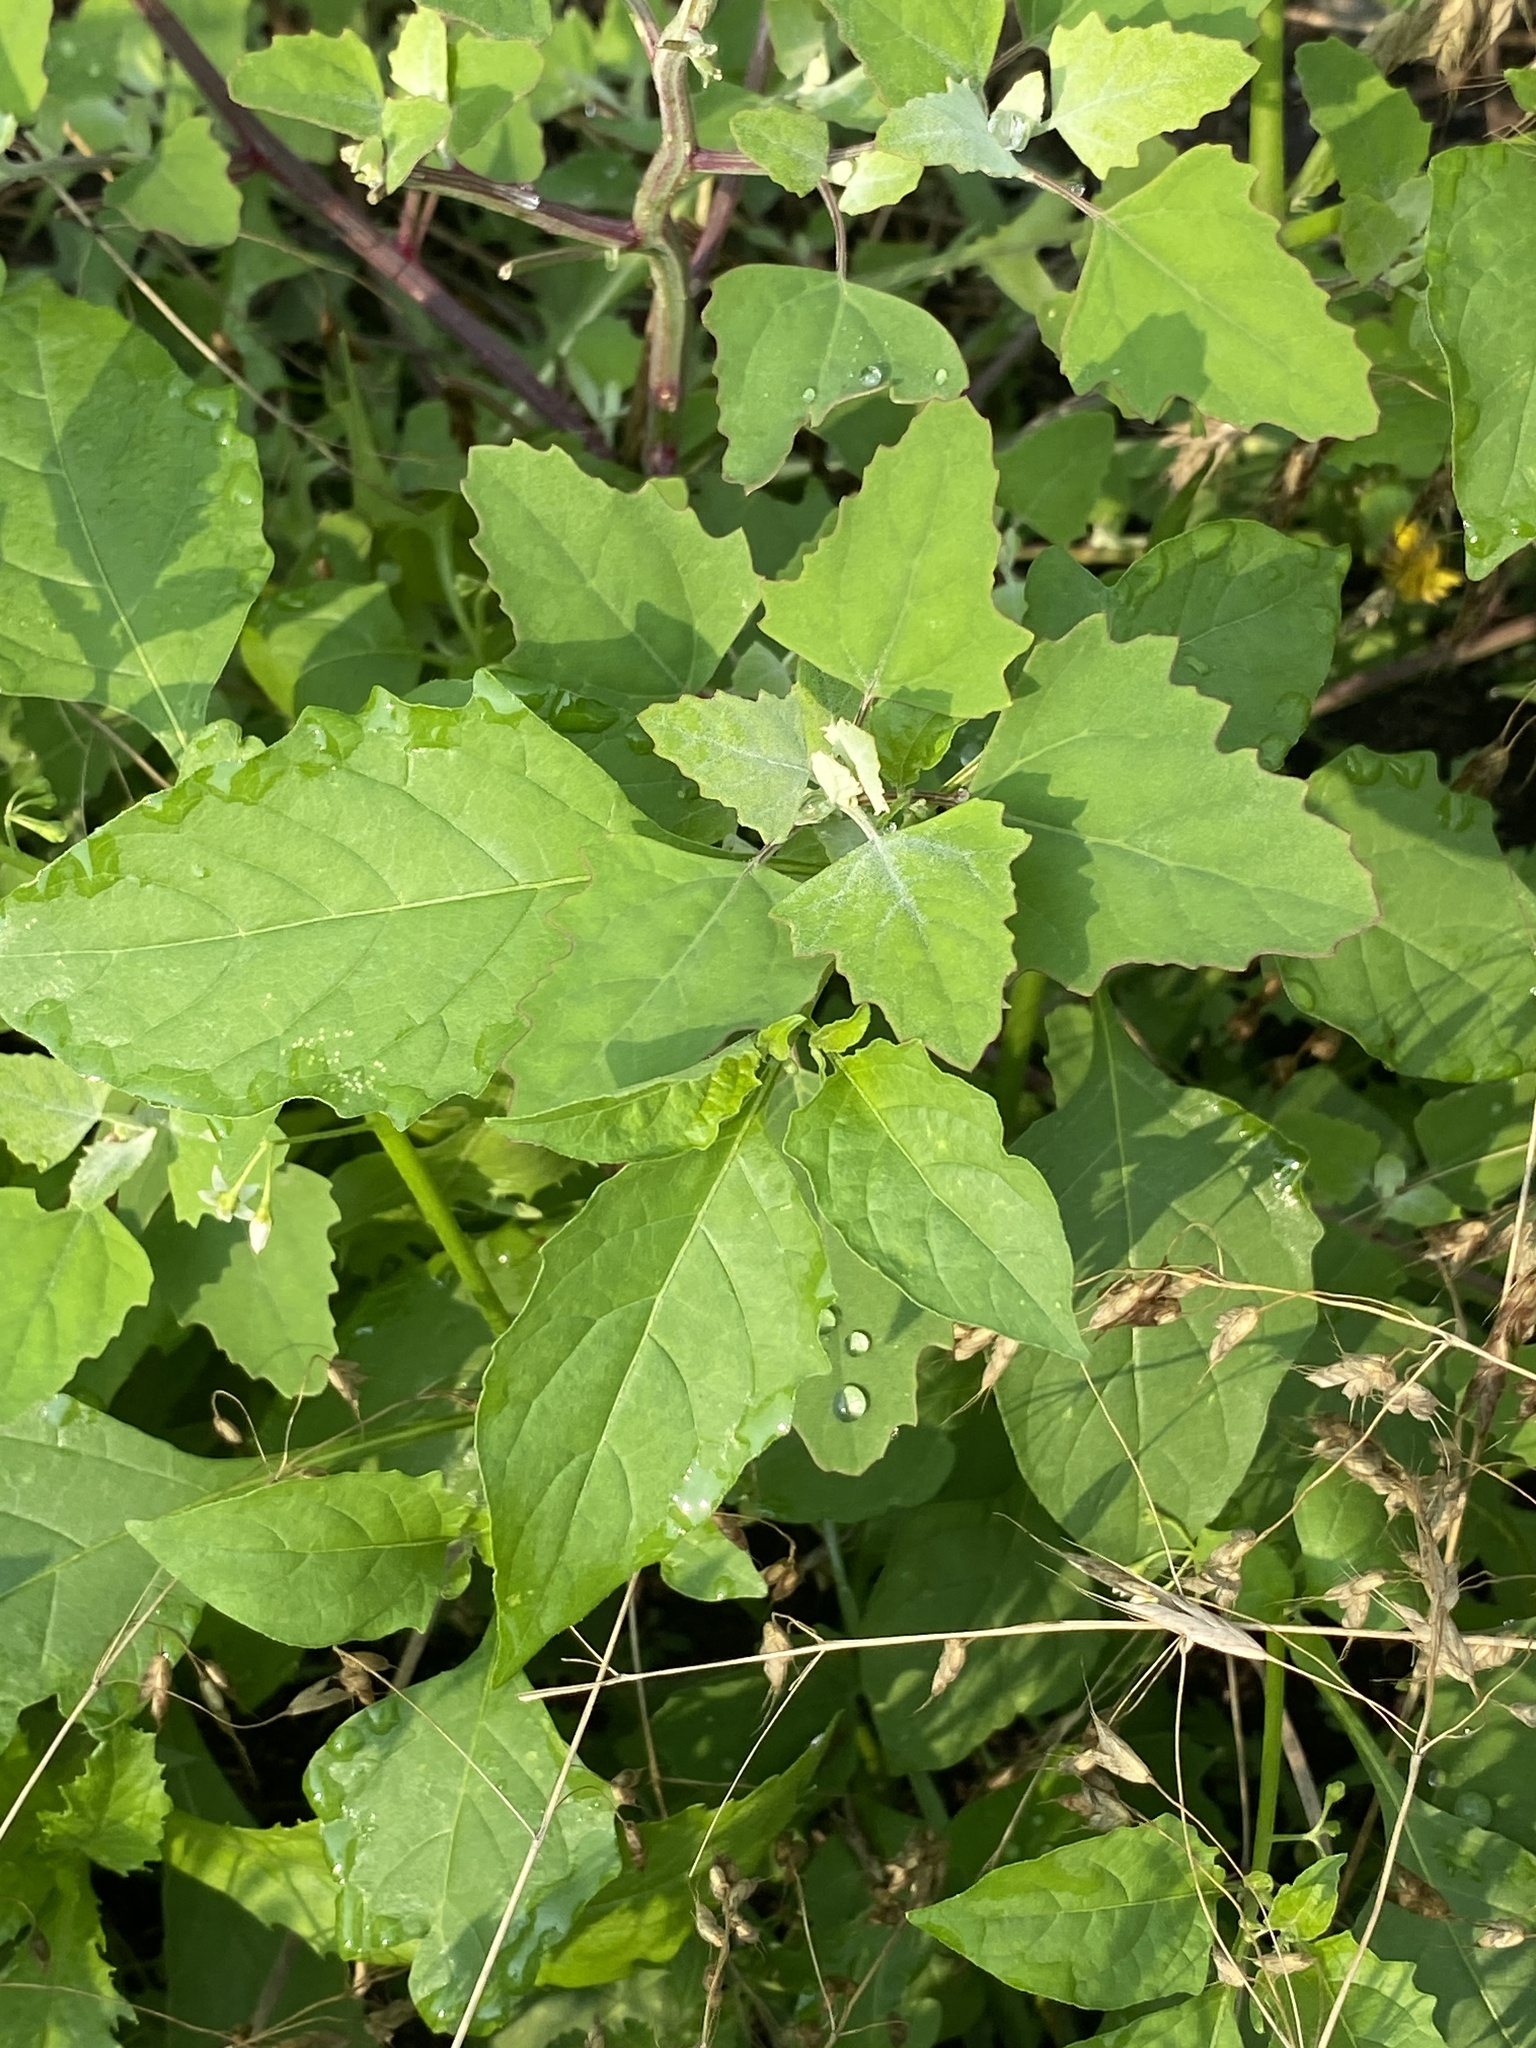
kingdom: Plantae
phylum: Tracheophyta
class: Magnoliopsida
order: Caryophyllales
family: Amaranthaceae
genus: Chenopodium
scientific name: Chenopodium album
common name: Fat-hen
